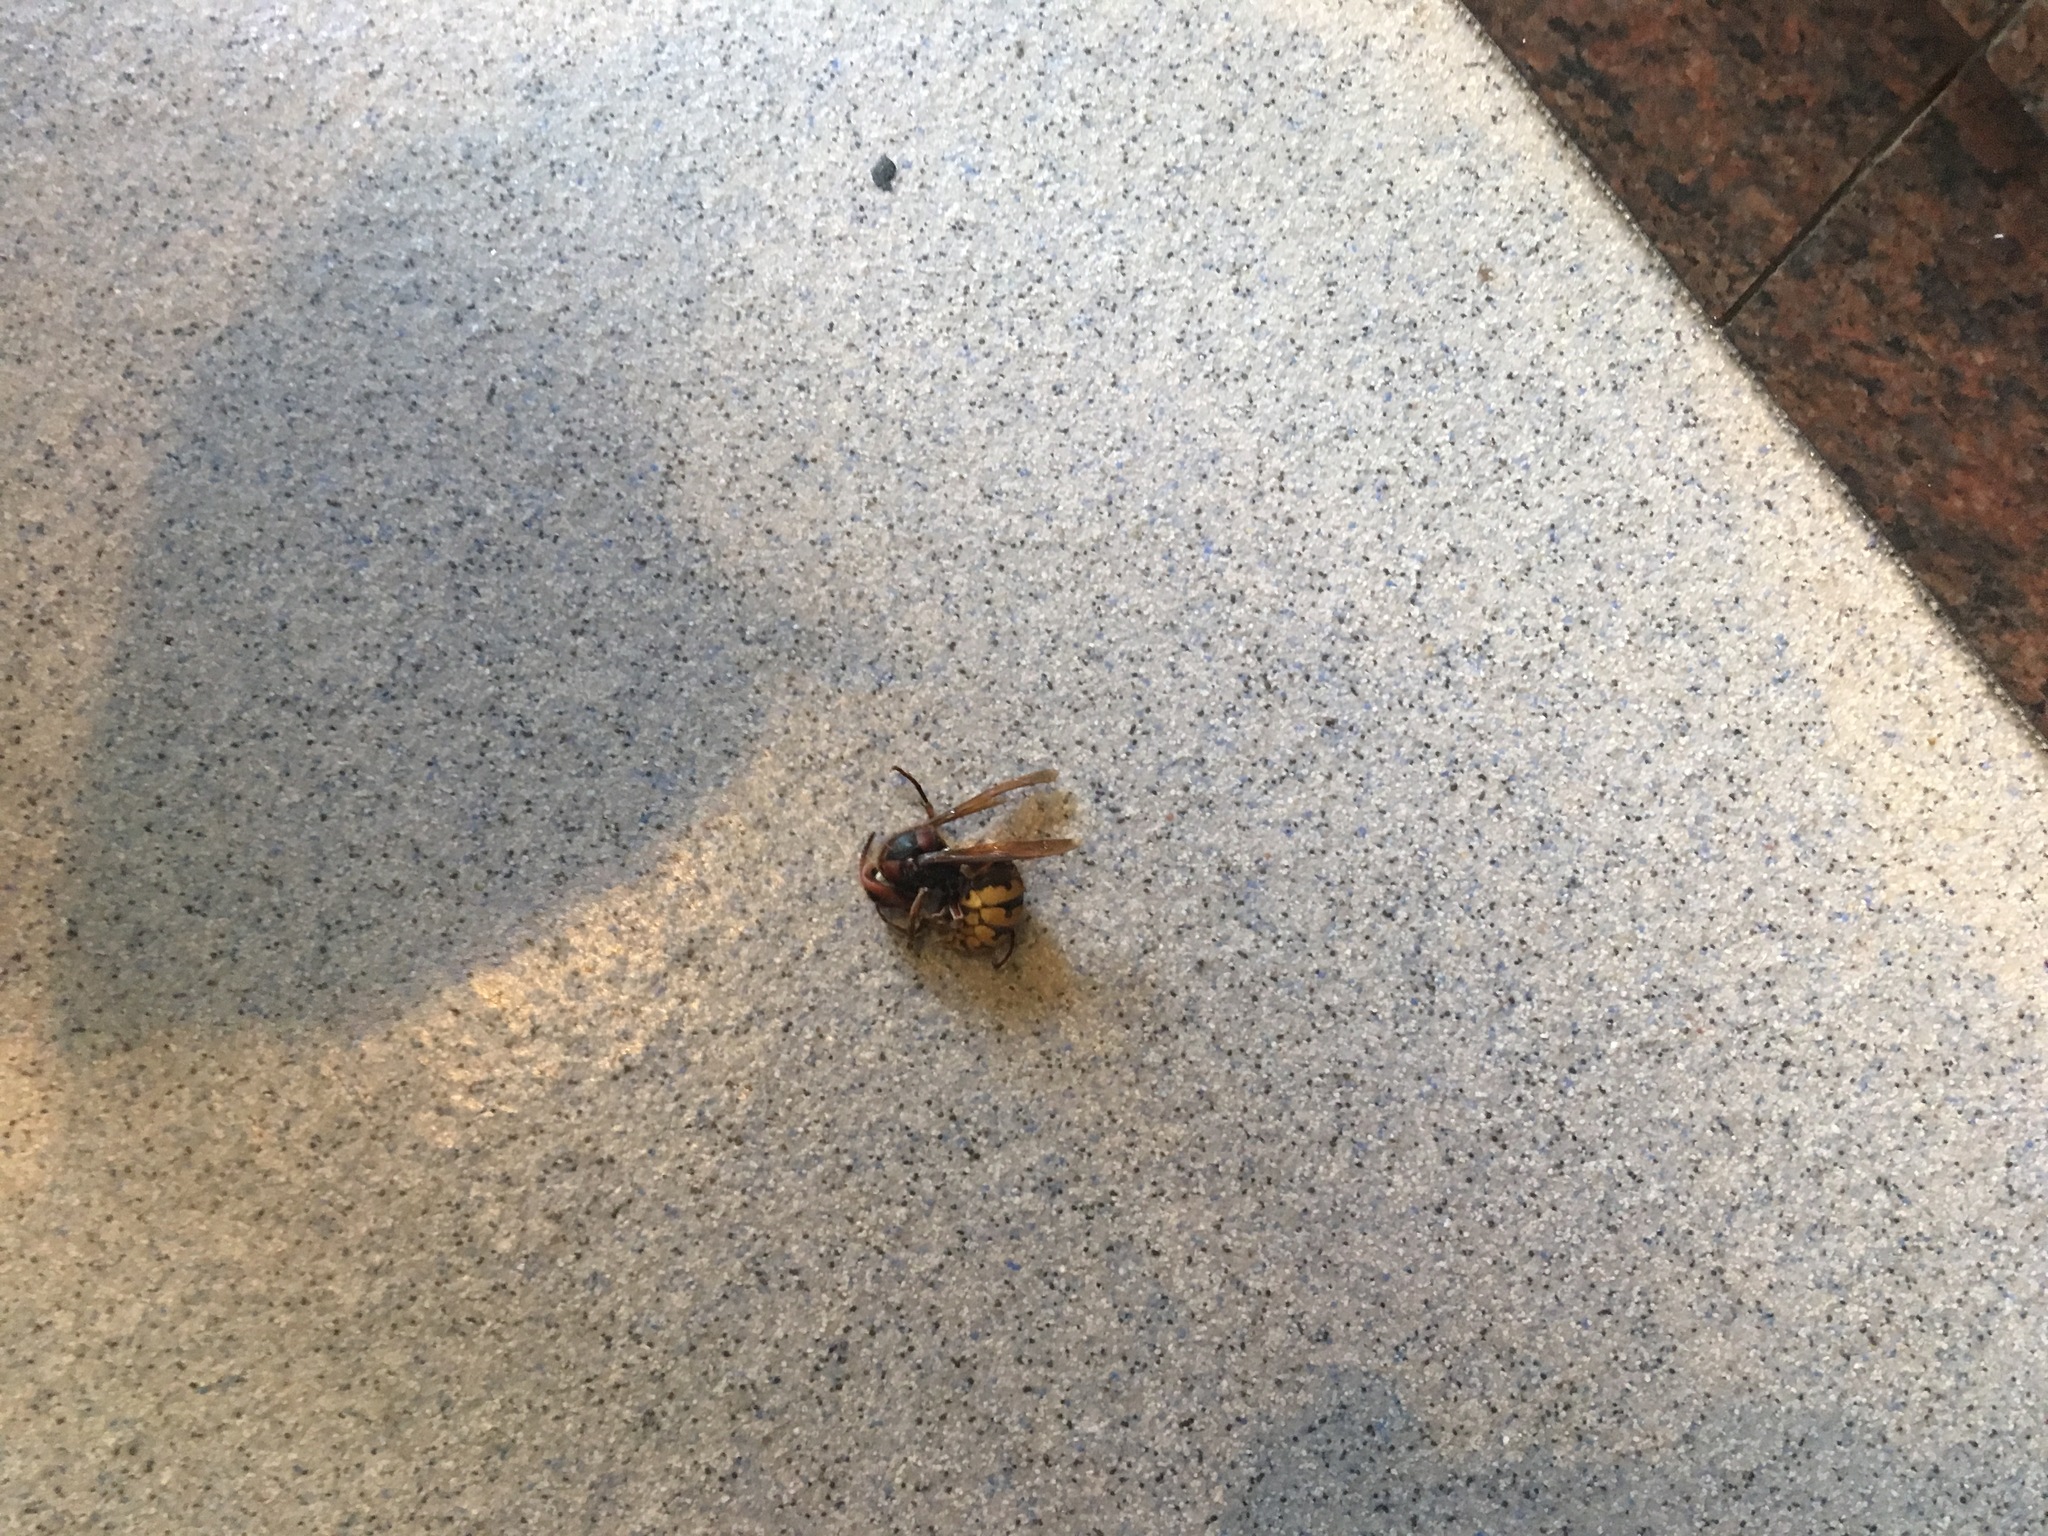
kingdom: Animalia
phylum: Arthropoda
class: Insecta
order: Hymenoptera
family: Vespidae
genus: Vespa
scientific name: Vespa crabro
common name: Hornet
